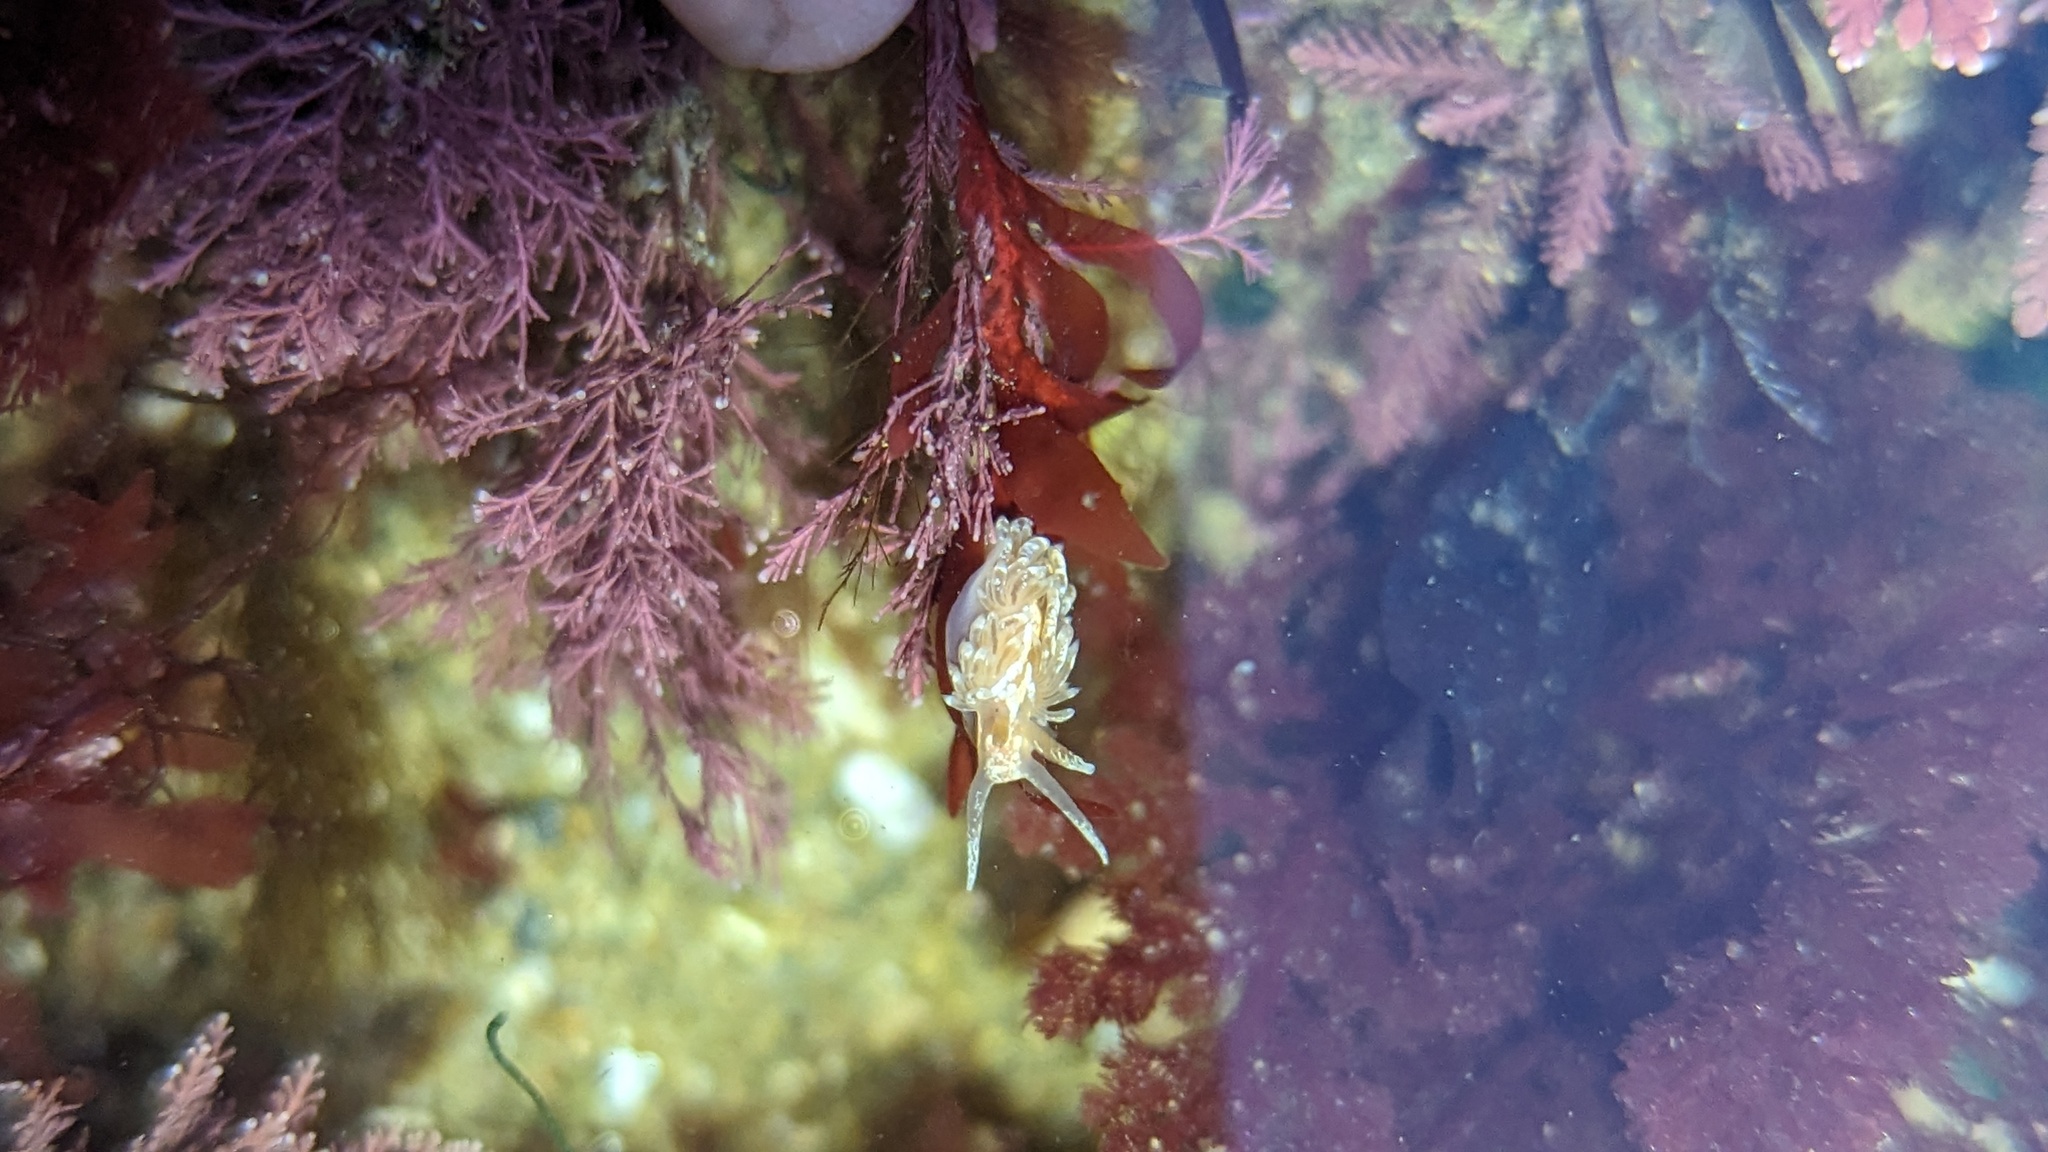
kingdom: Animalia
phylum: Mollusca
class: Gastropoda
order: Nudibranchia
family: Aeolidiidae
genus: Anteaeolidiella
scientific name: Anteaeolidiella chromosoma
